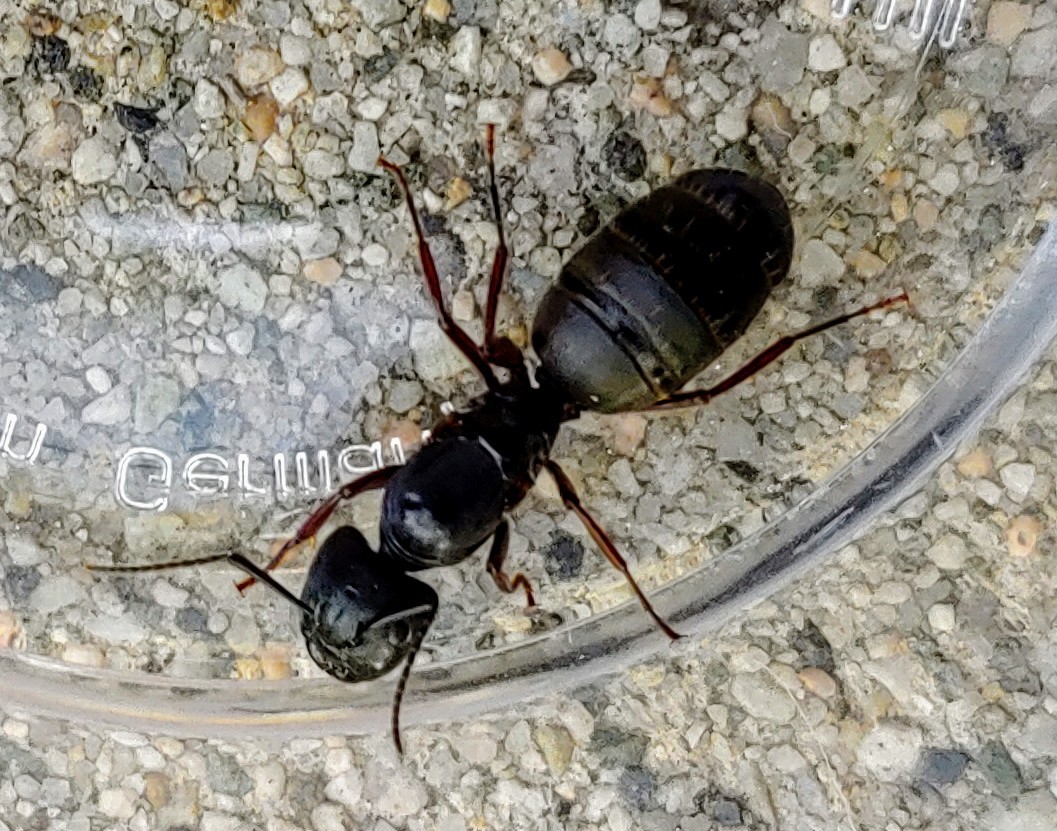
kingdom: Animalia
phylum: Arthropoda
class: Insecta
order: Hymenoptera
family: Formicidae
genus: Camponotus
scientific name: Camponotus modoc
